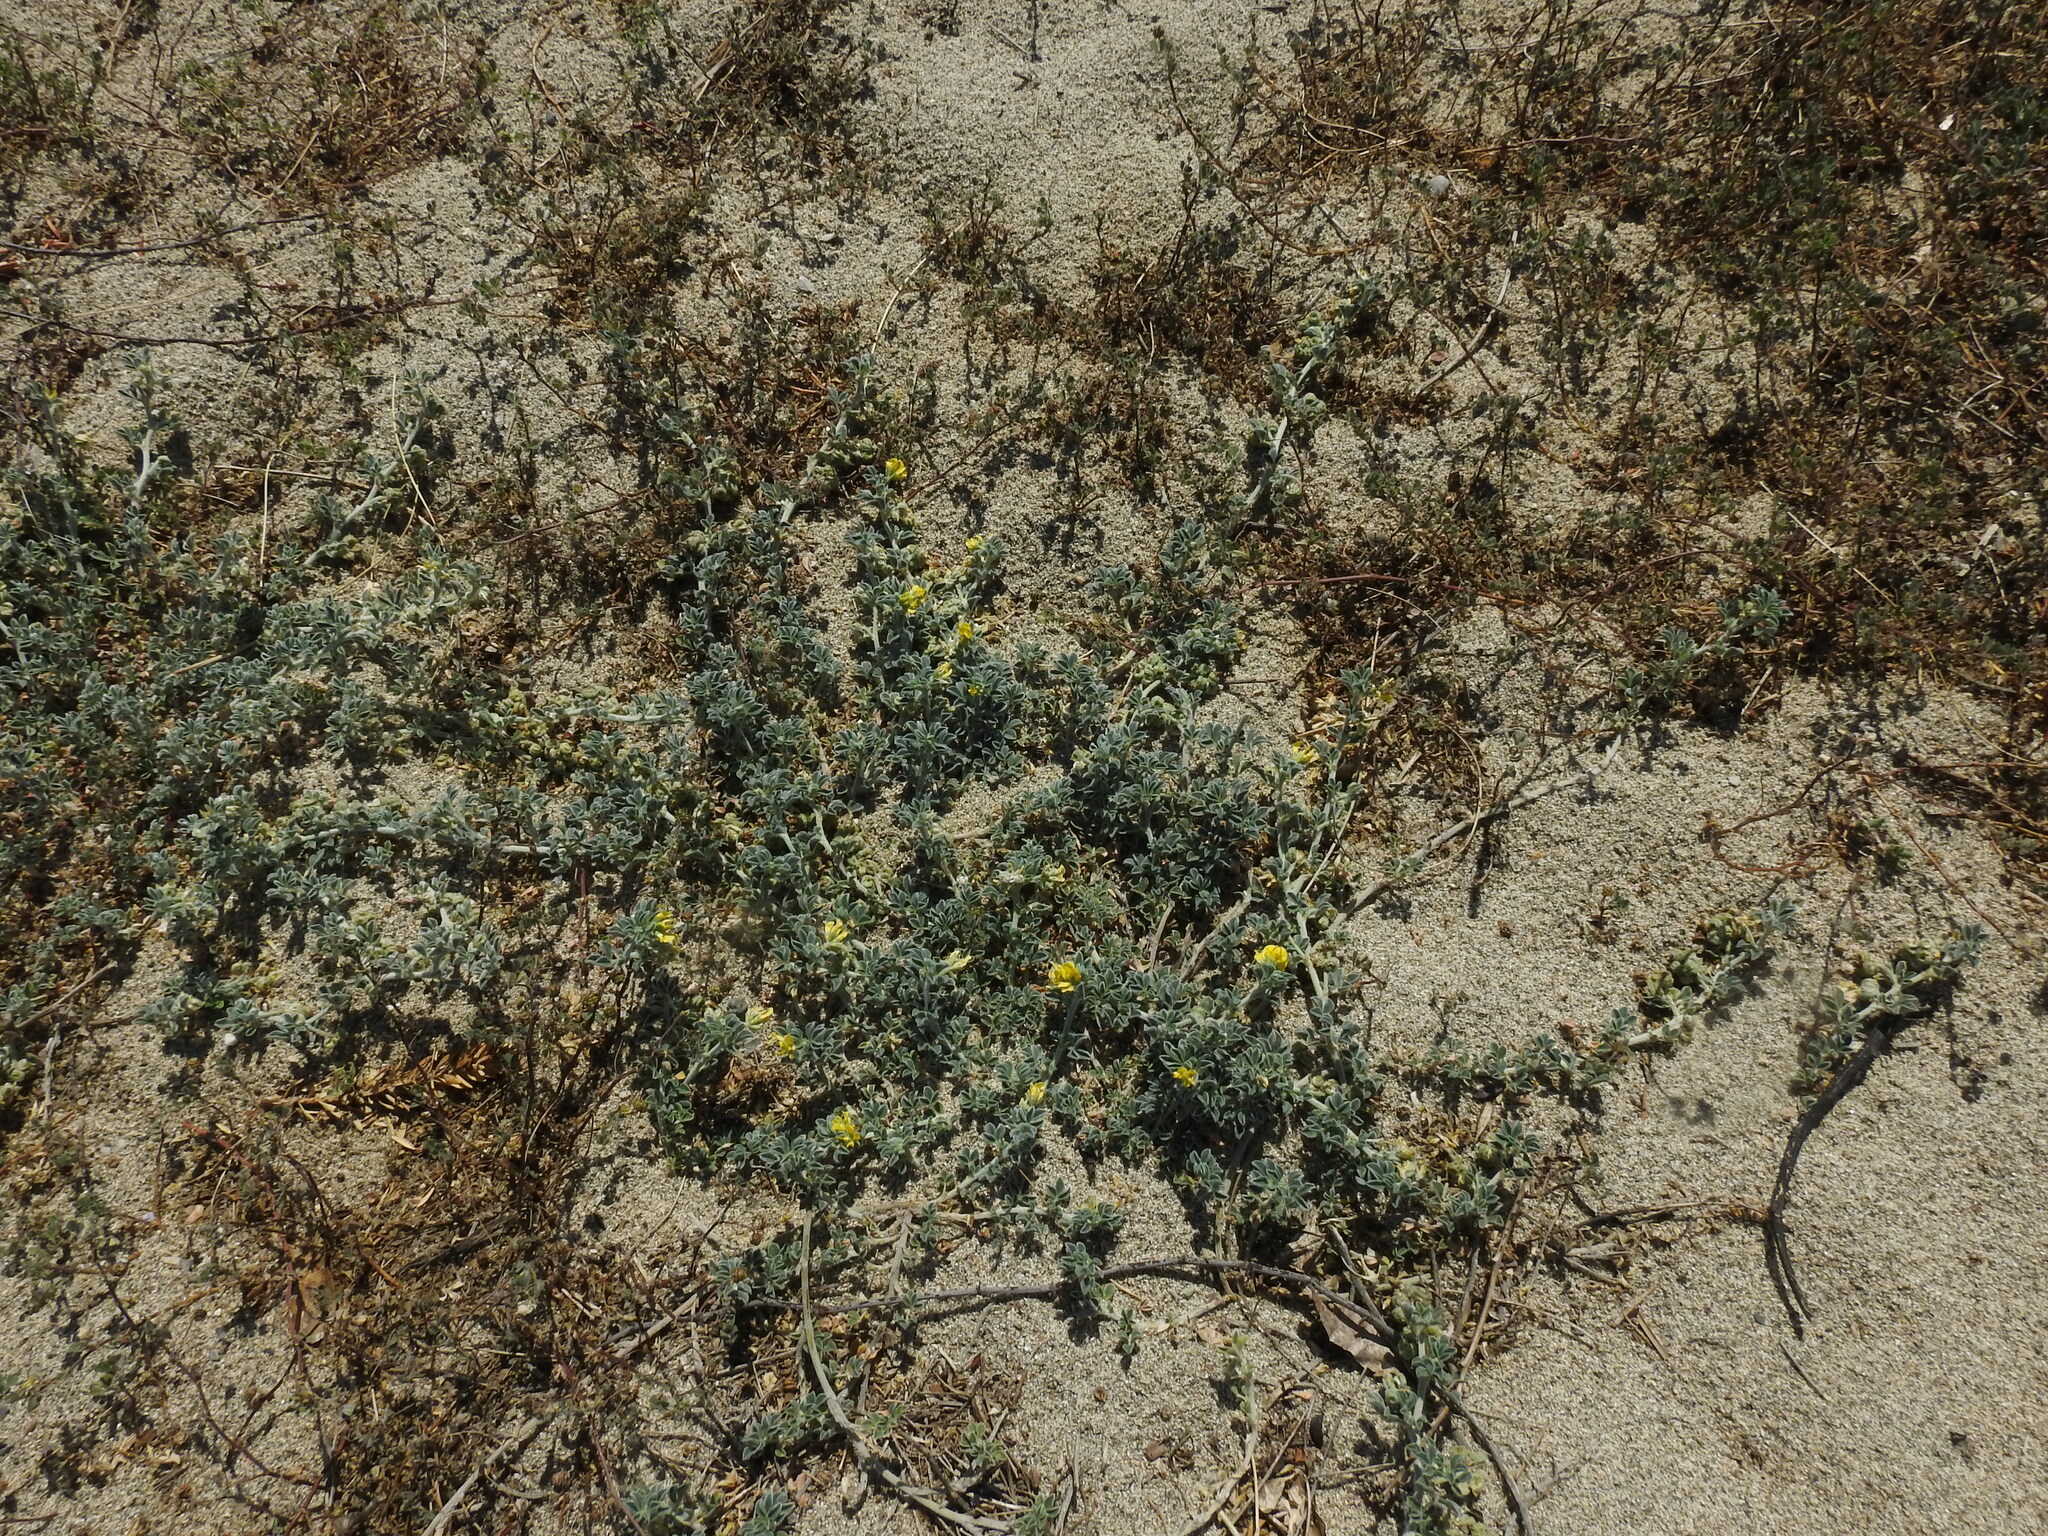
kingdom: Plantae
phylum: Tracheophyta
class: Magnoliopsida
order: Fabales
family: Fabaceae
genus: Medicago
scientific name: Medicago marina
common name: Sea medick
